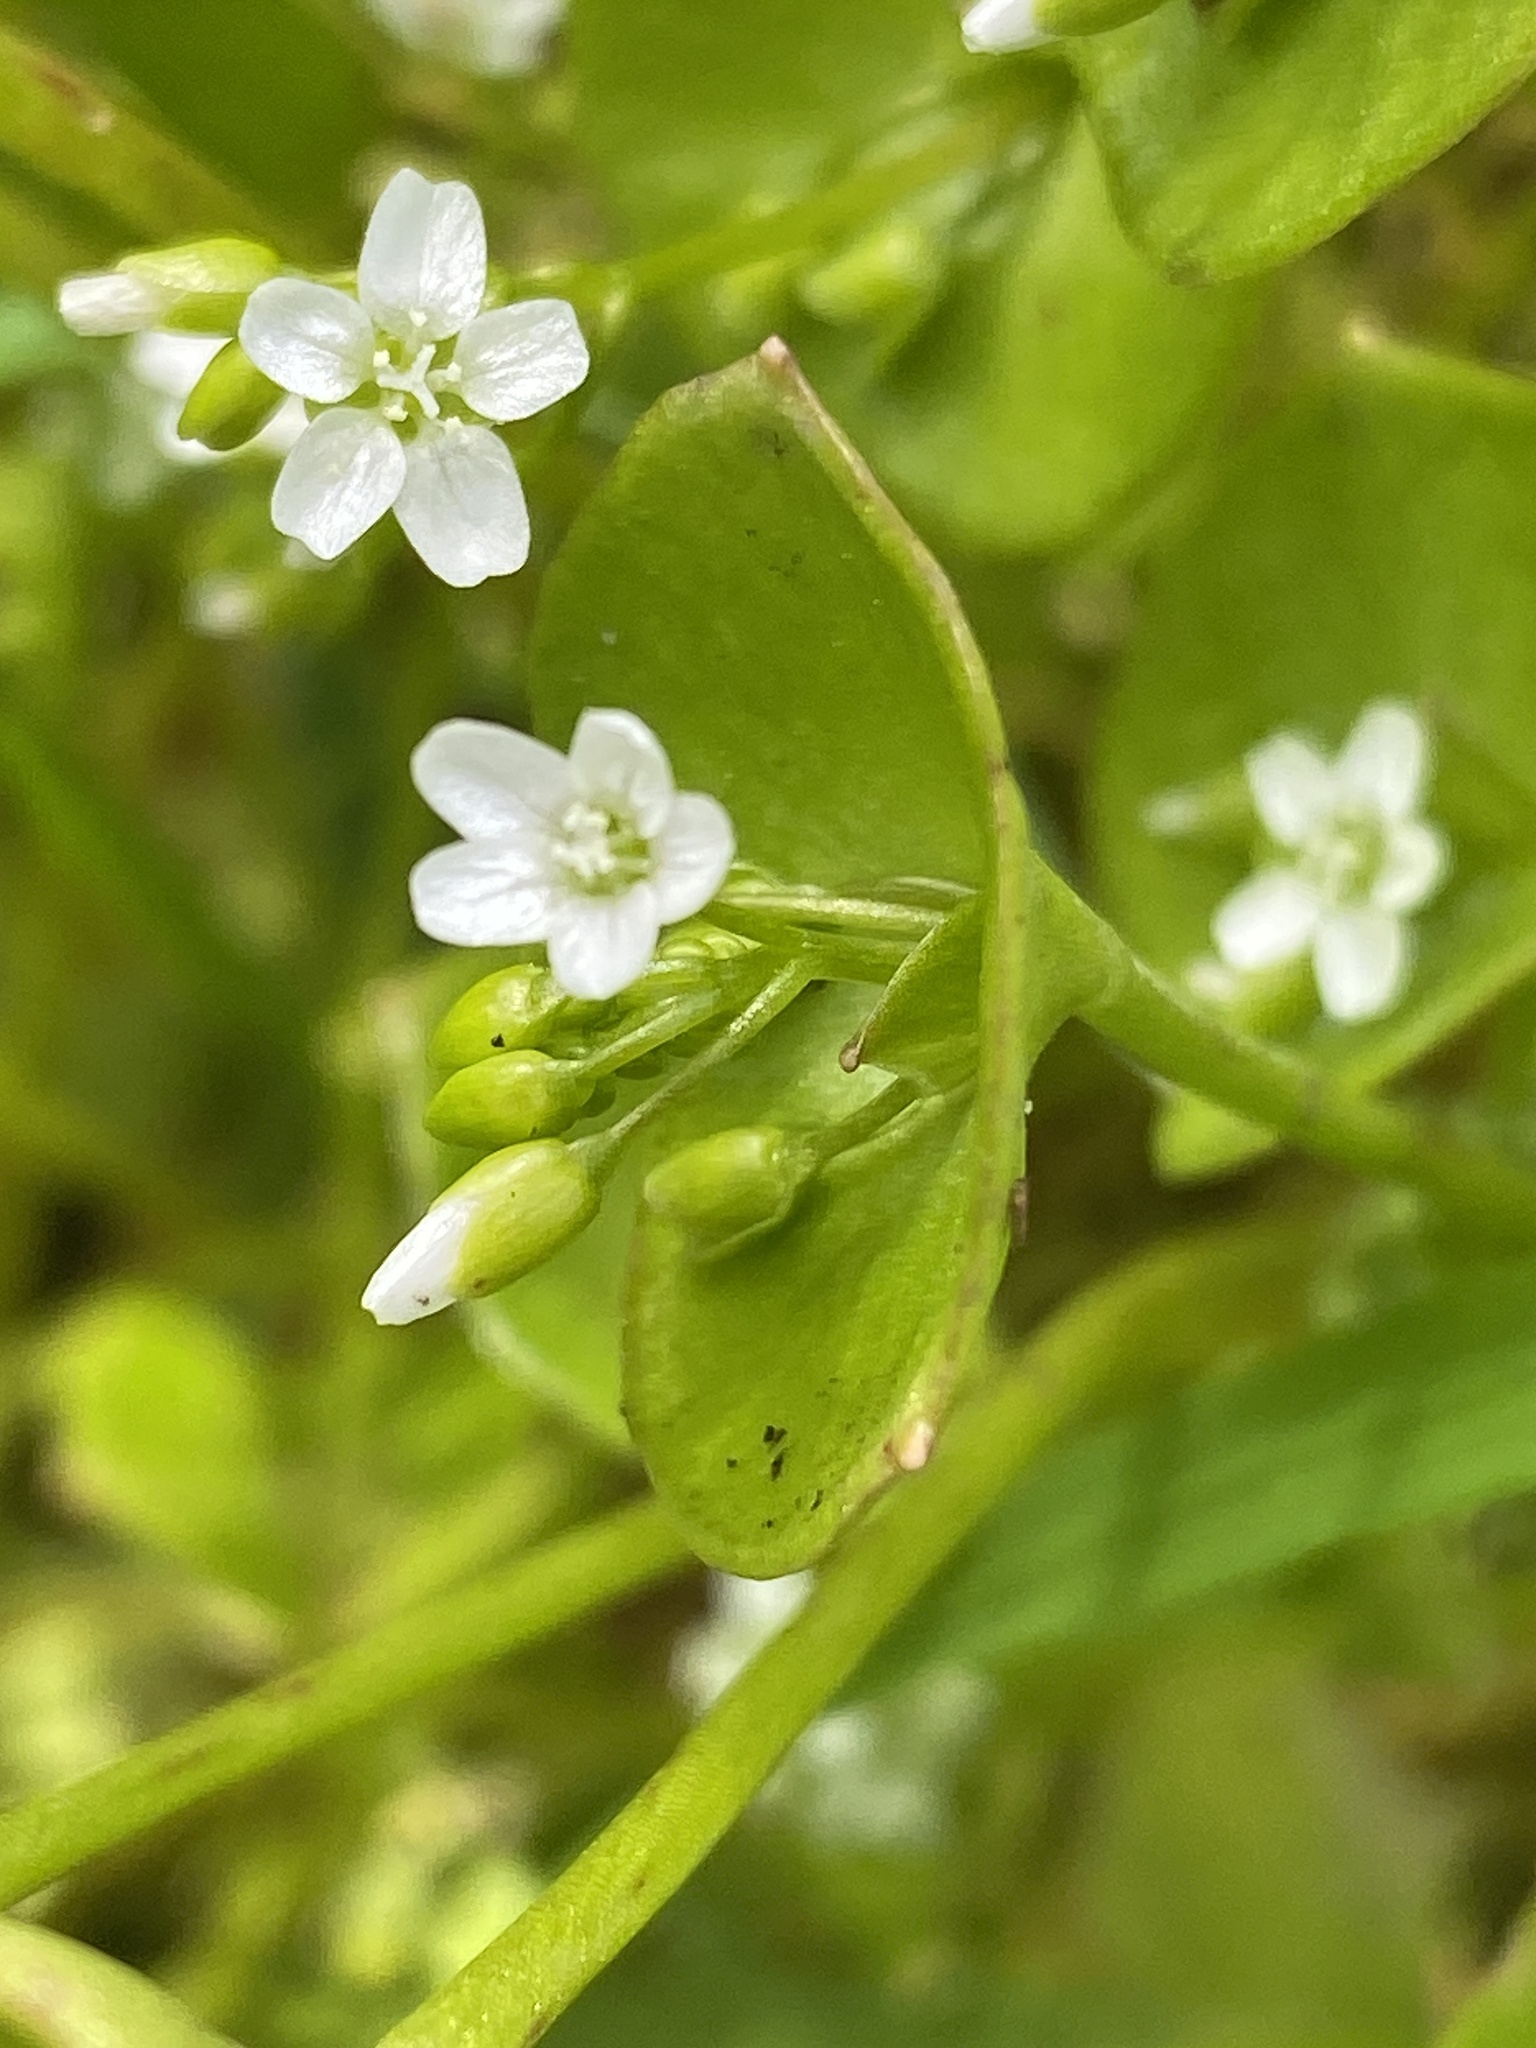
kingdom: Plantae
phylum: Tracheophyta
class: Magnoliopsida
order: Caryophyllales
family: Montiaceae
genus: Claytonia
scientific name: Claytonia perfoliata
